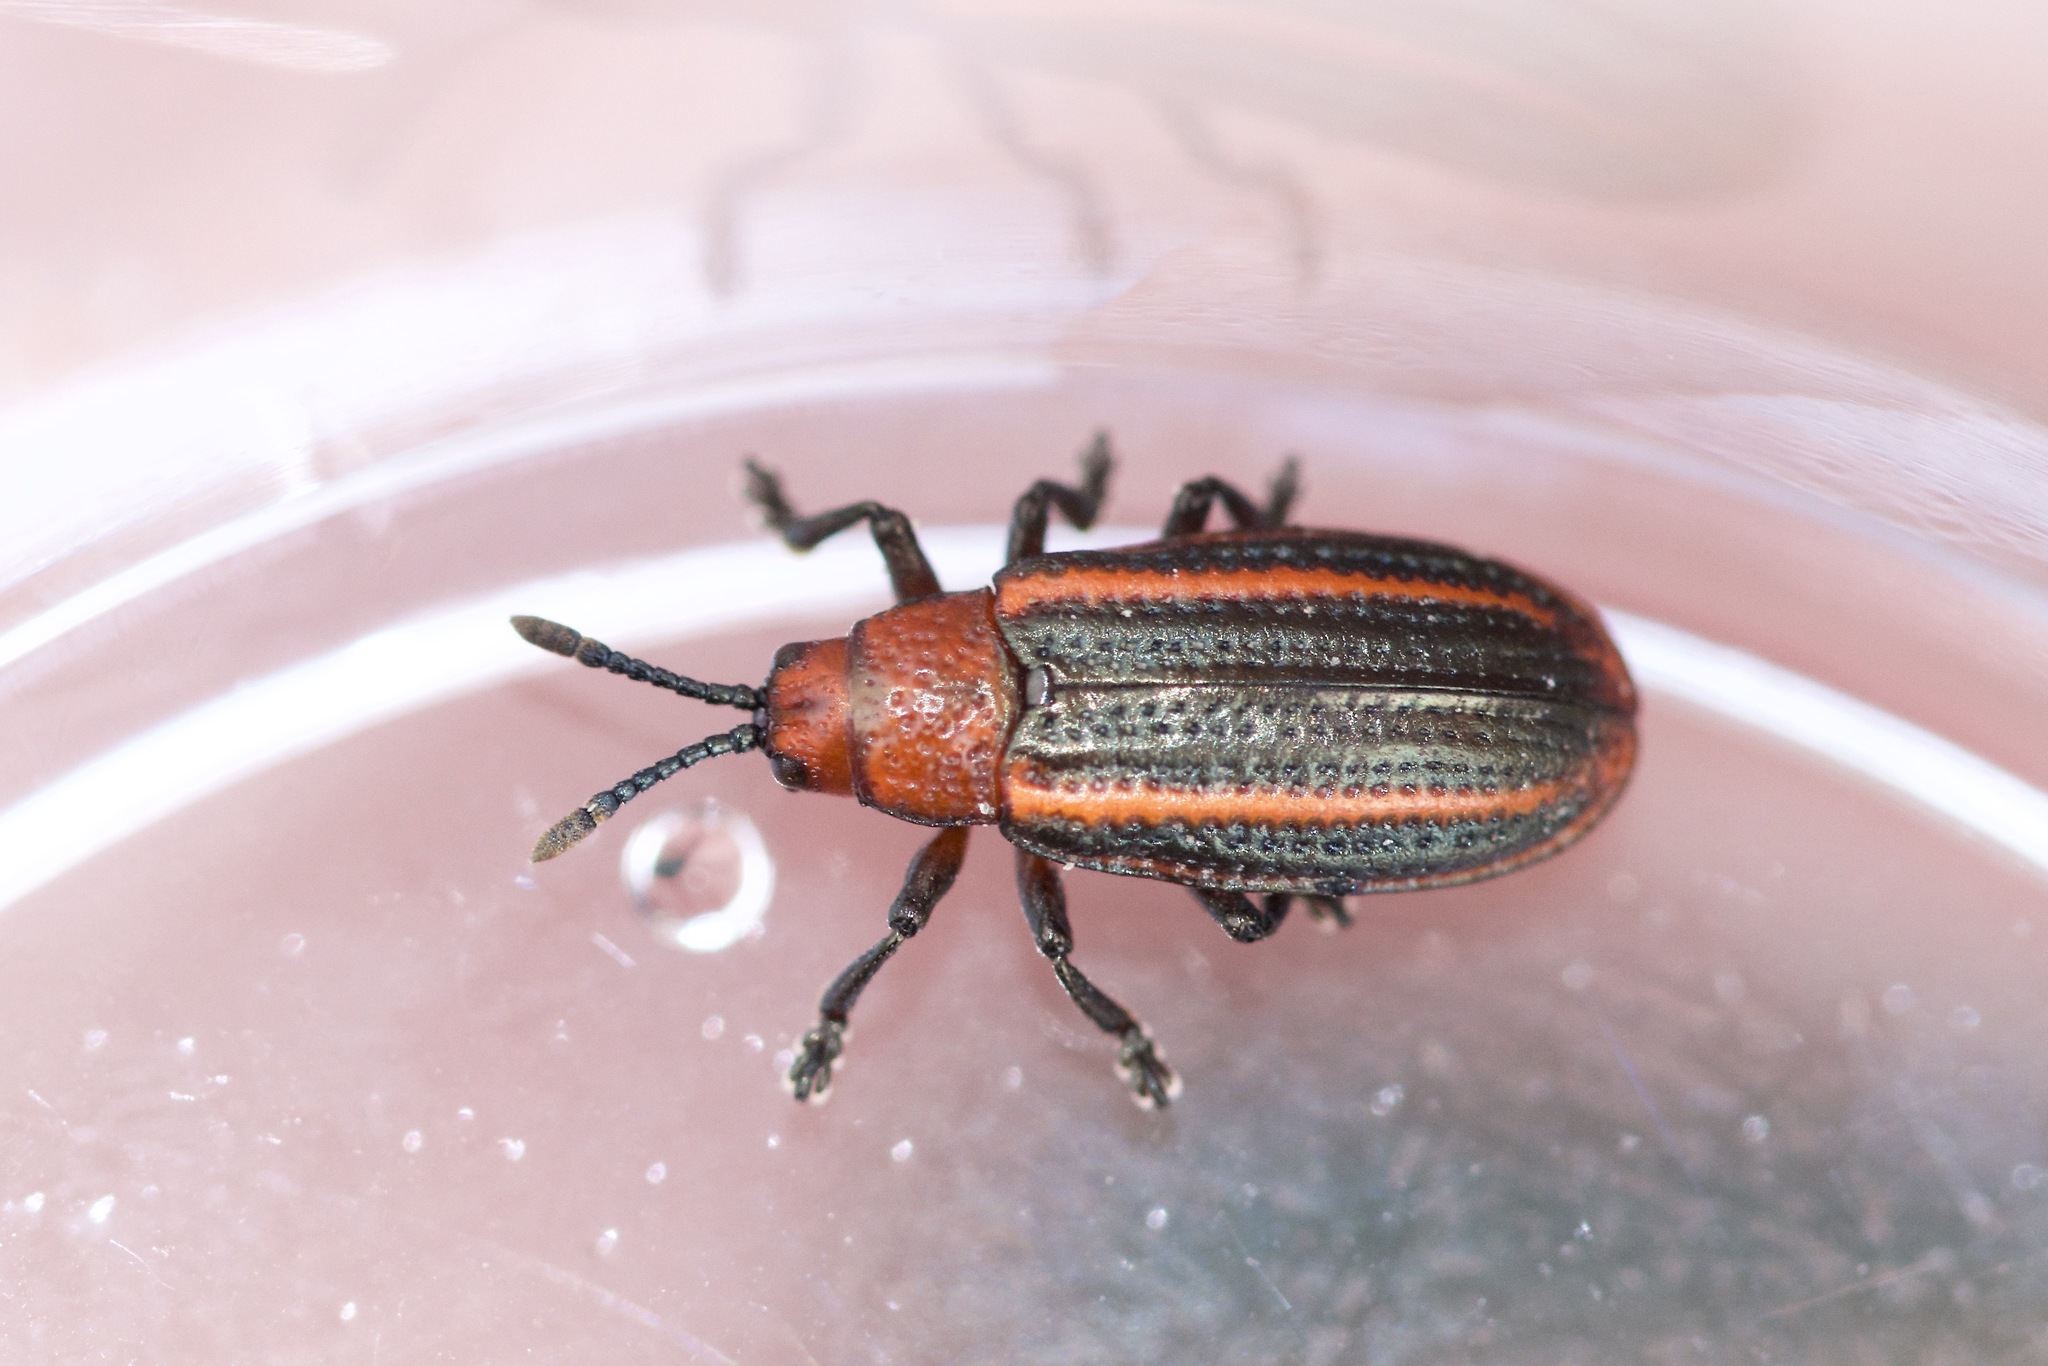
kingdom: Animalia
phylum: Arthropoda
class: Insecta
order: Coleoptera
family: Chrysomelidae
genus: Microrhopala
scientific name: Microrhopala vittata
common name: Goldenrod leaf miner beetle
